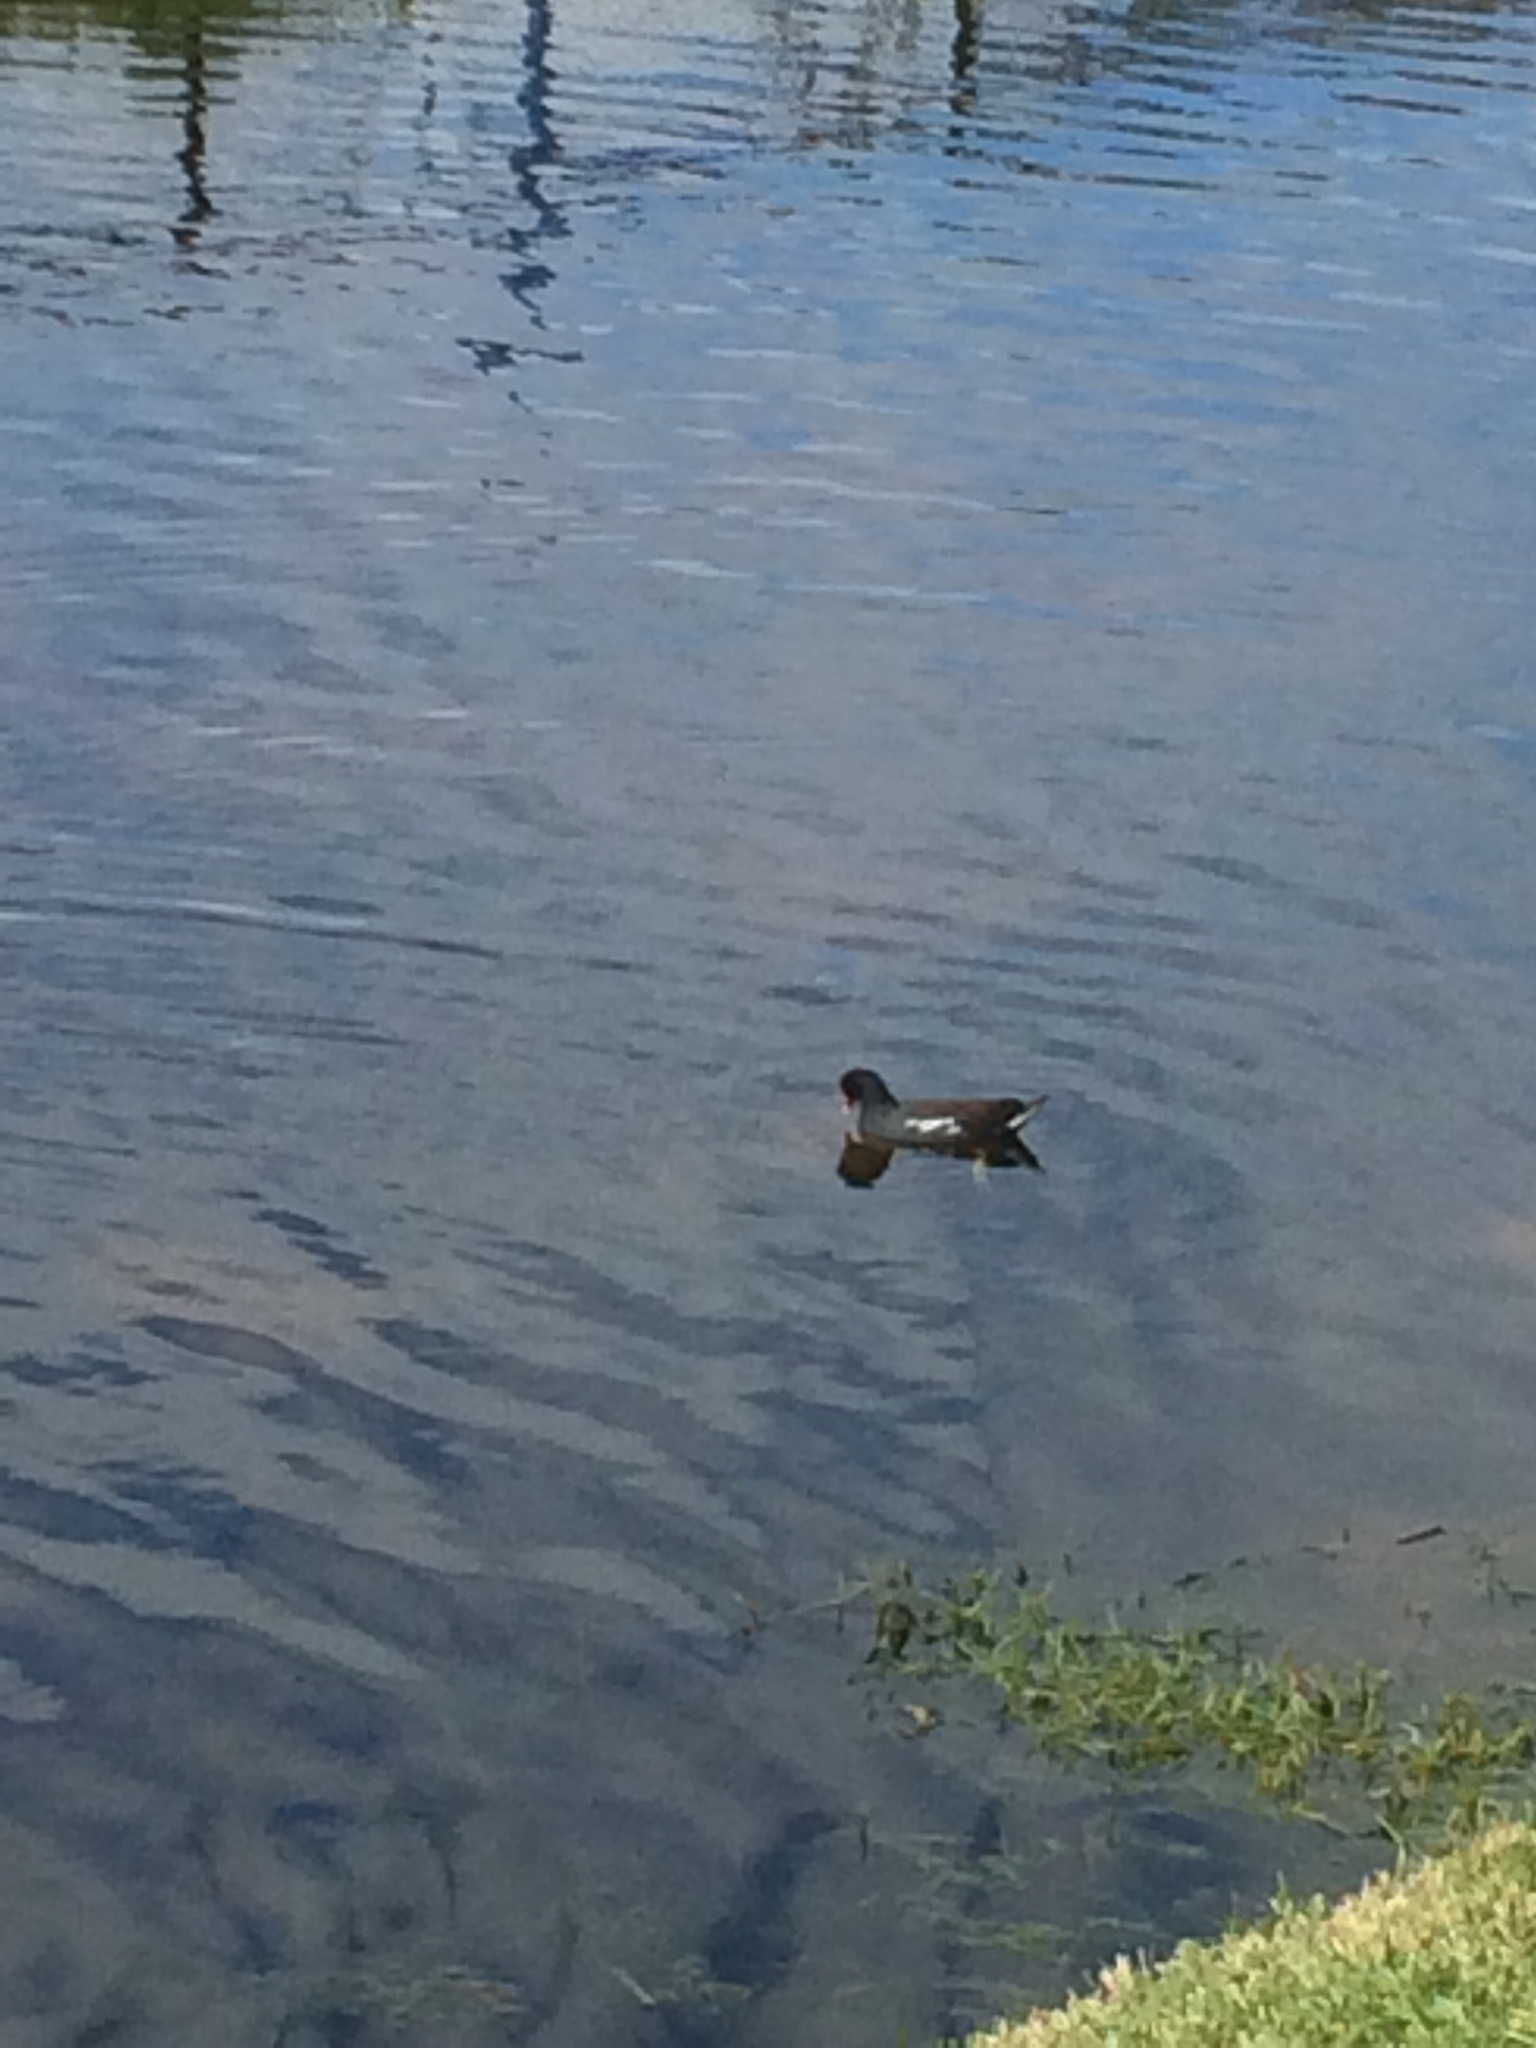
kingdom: Animalia
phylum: Chordata
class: Aves
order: Gruiformes
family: Rallidae
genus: Gallinula
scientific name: Gallinula chloropus
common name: Common moorhen
